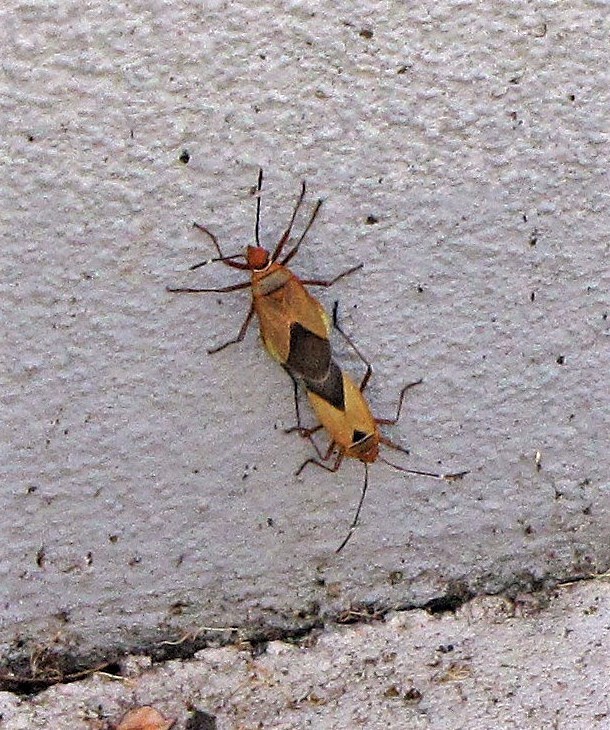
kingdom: Animalia
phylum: Arthropoda
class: Insecta
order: Hemiptera
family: Pyrrhocoridae
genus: Dysdercus
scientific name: Dysdercus
